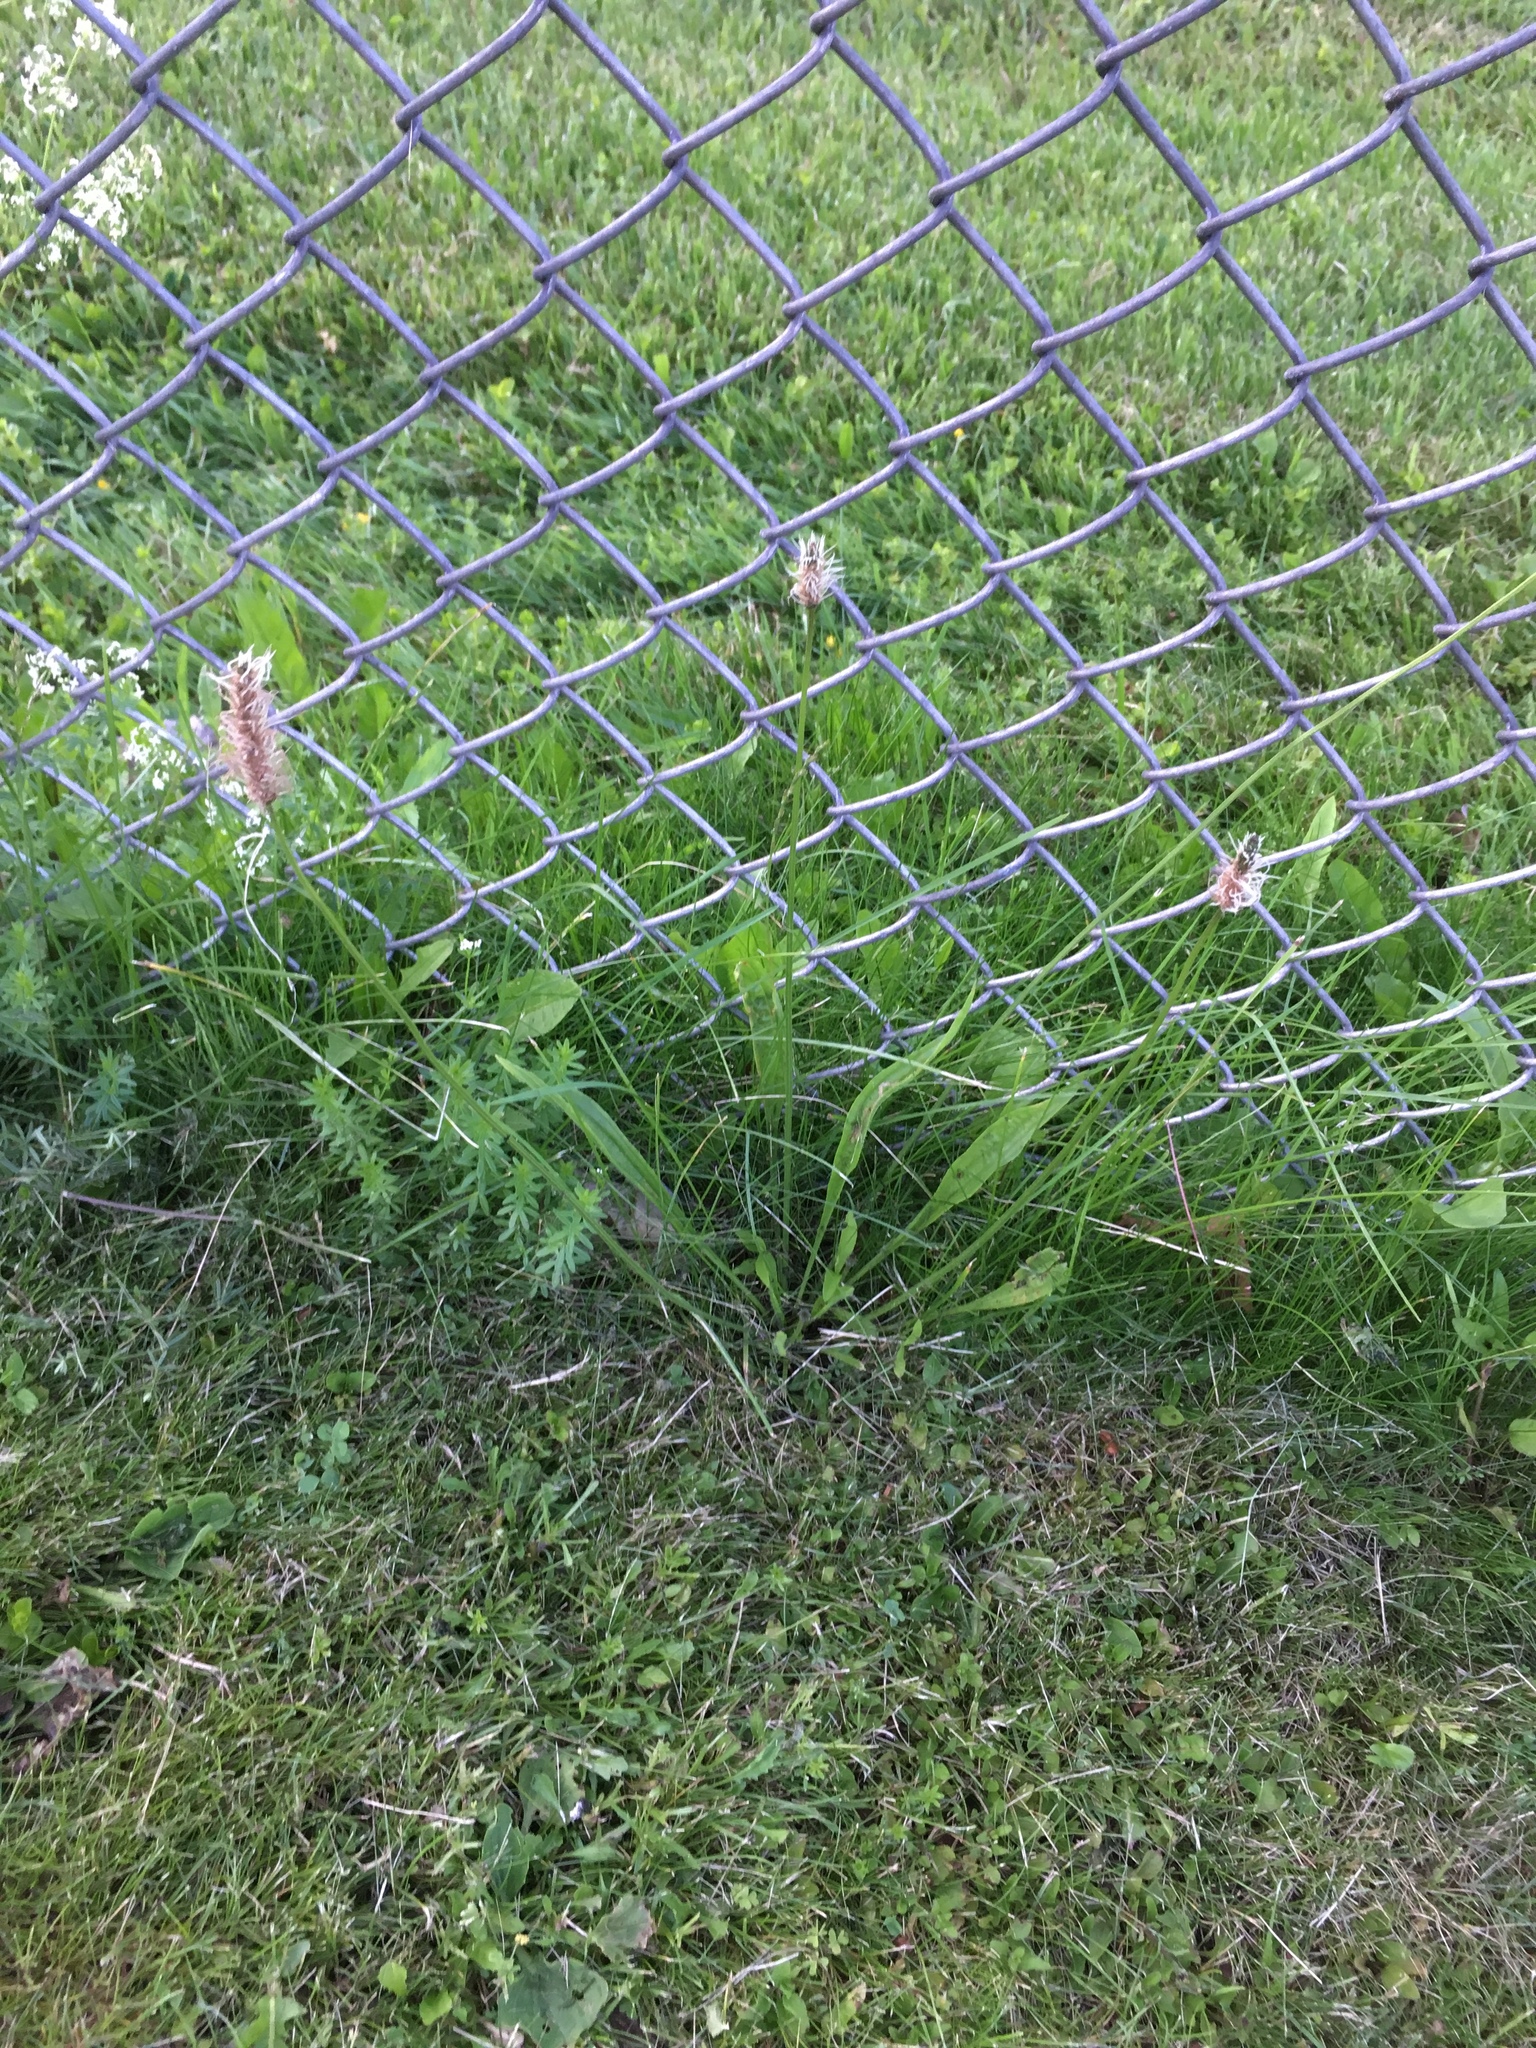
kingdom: Plantae
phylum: Tracheophyta
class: Magnoliopsida
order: Lamiales
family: Plantaginaceae
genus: Plantago
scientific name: Plantago lanceolata
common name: Ribwort plantain
